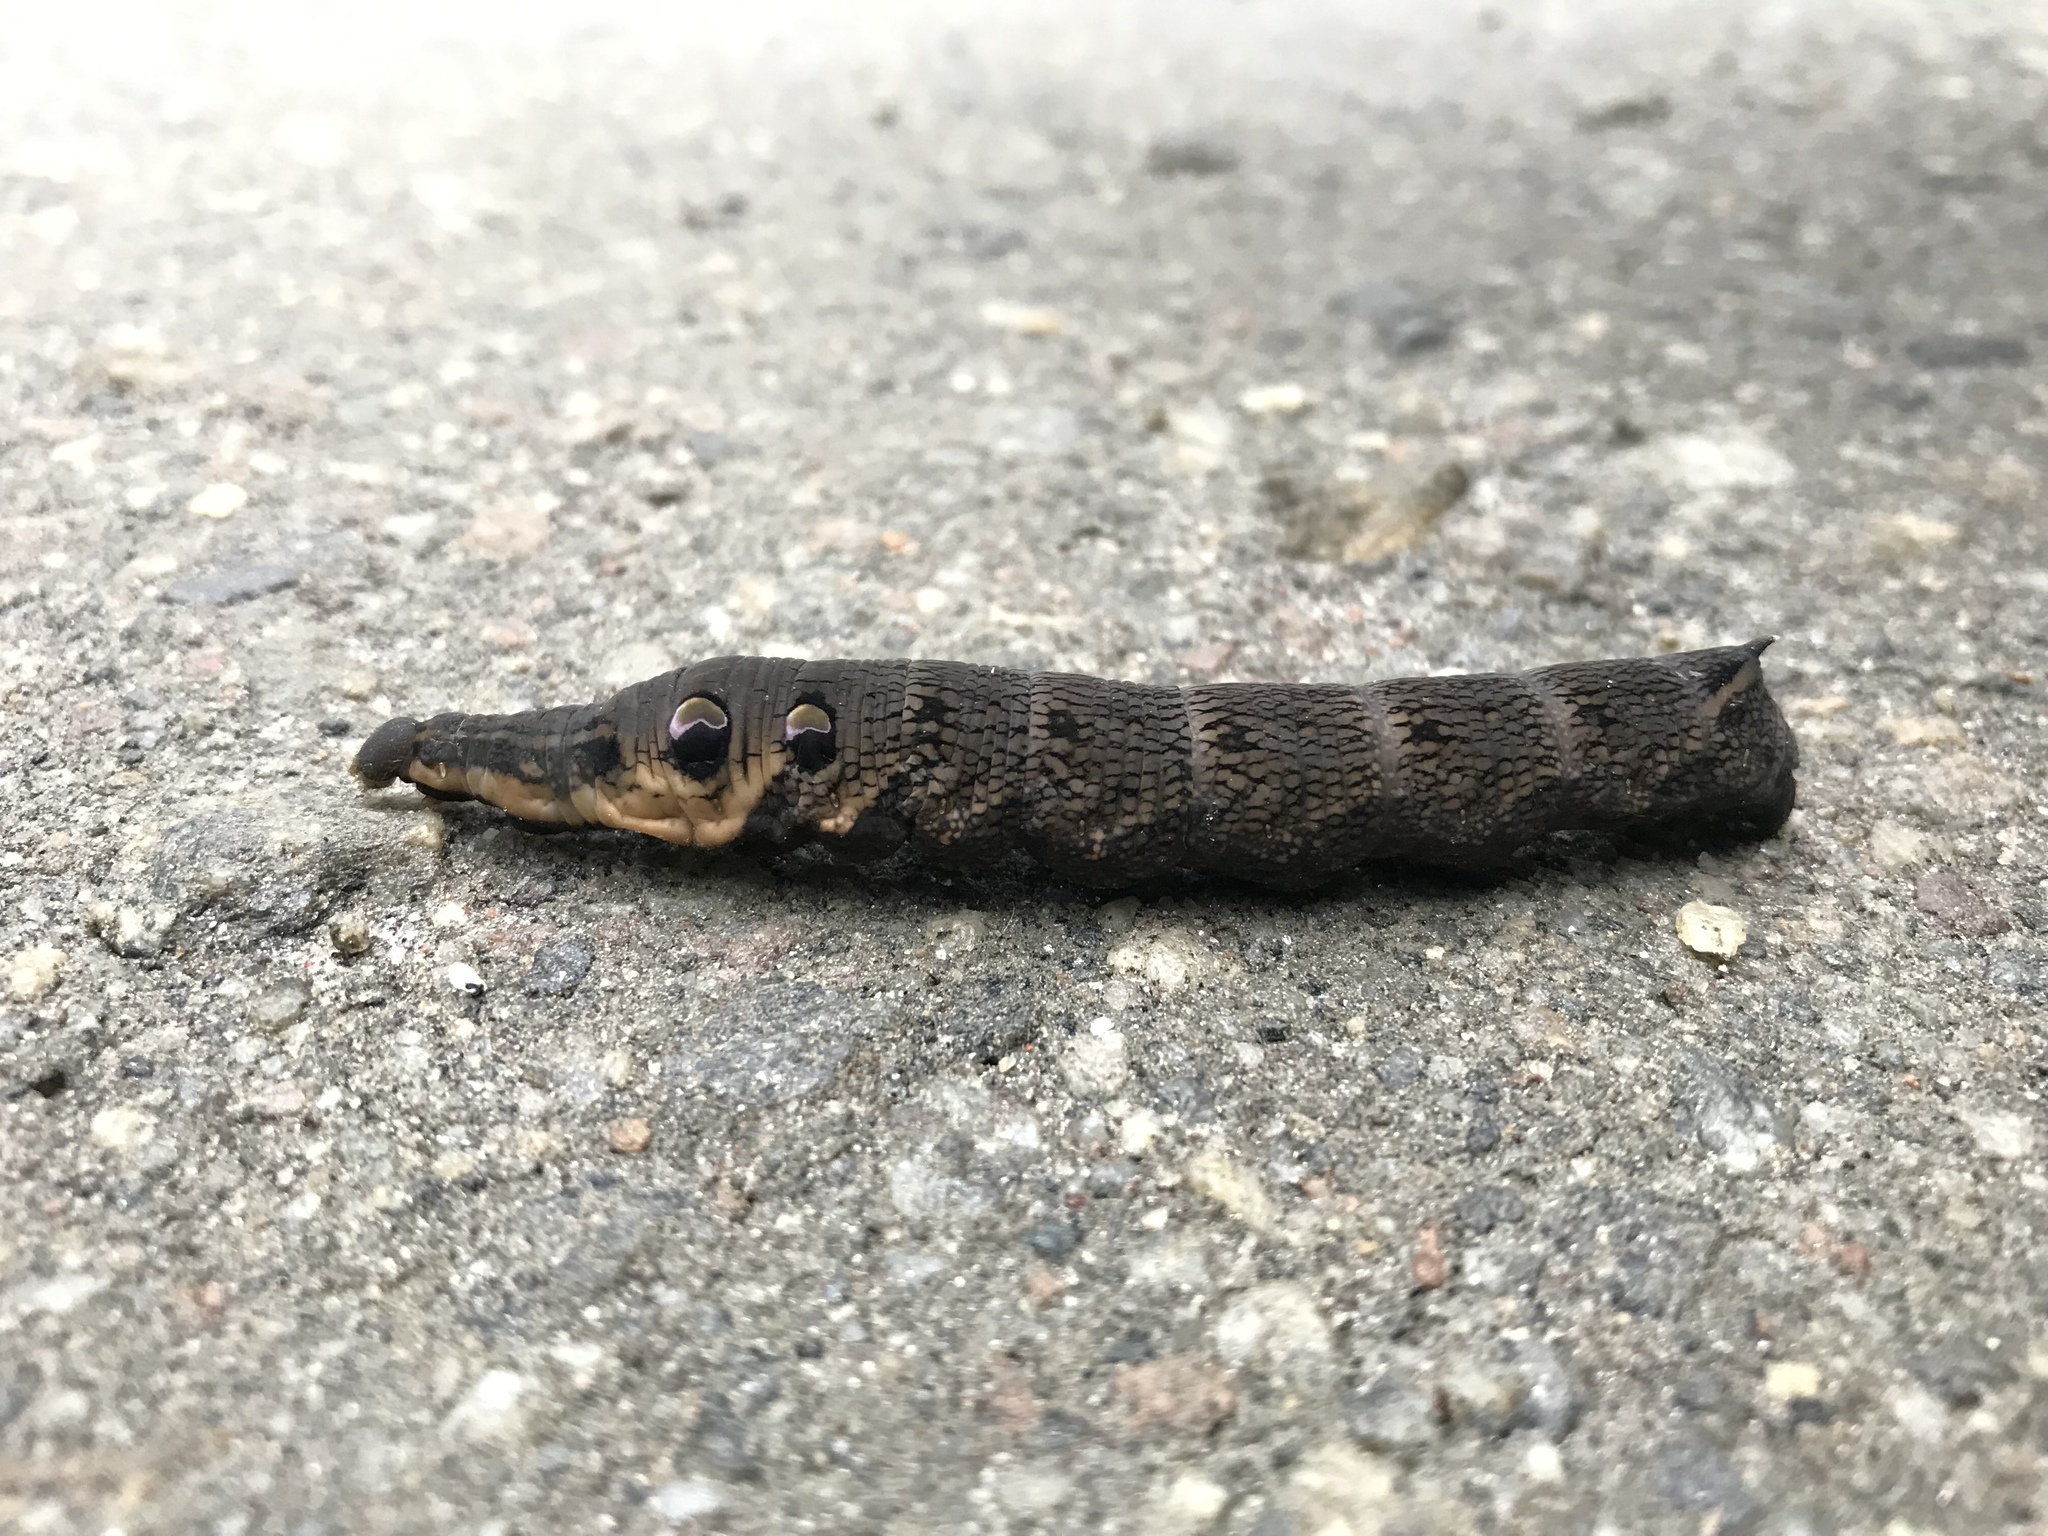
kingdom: Animalia
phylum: Arthropoda
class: Insecta
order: Lepidoptera
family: Sphingidae
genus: Deilephila
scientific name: Deilephila elpenor
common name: Elephant hawk-moth
